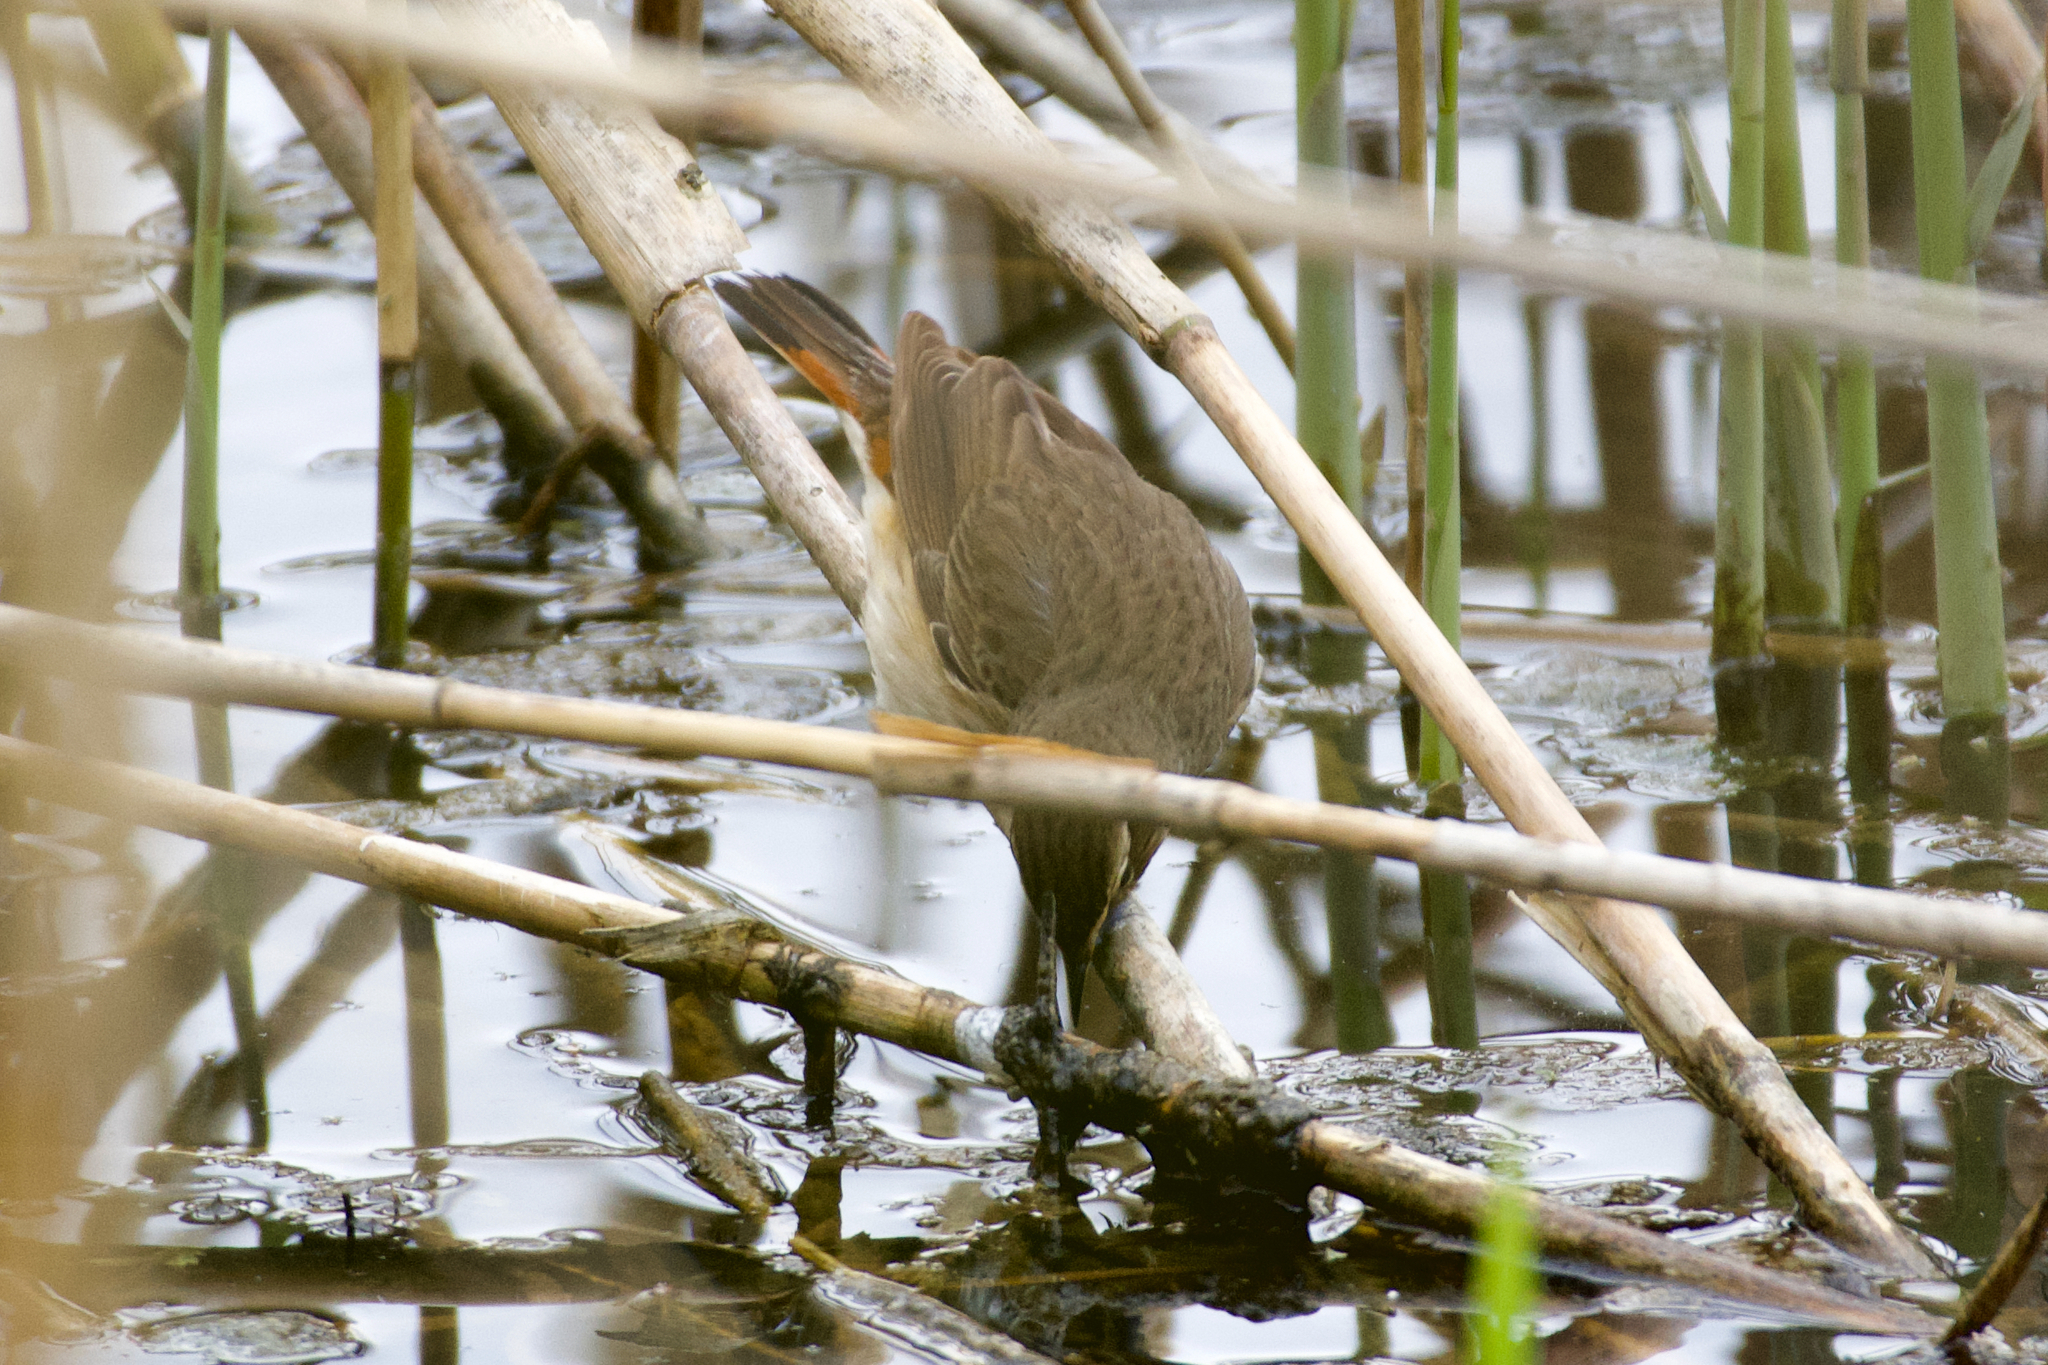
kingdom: Animalia
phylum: Chordata
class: Aves
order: Passeriformes
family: Muscicapidae
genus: Luscinia
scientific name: Luscinia svecica
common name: Bluethroat
